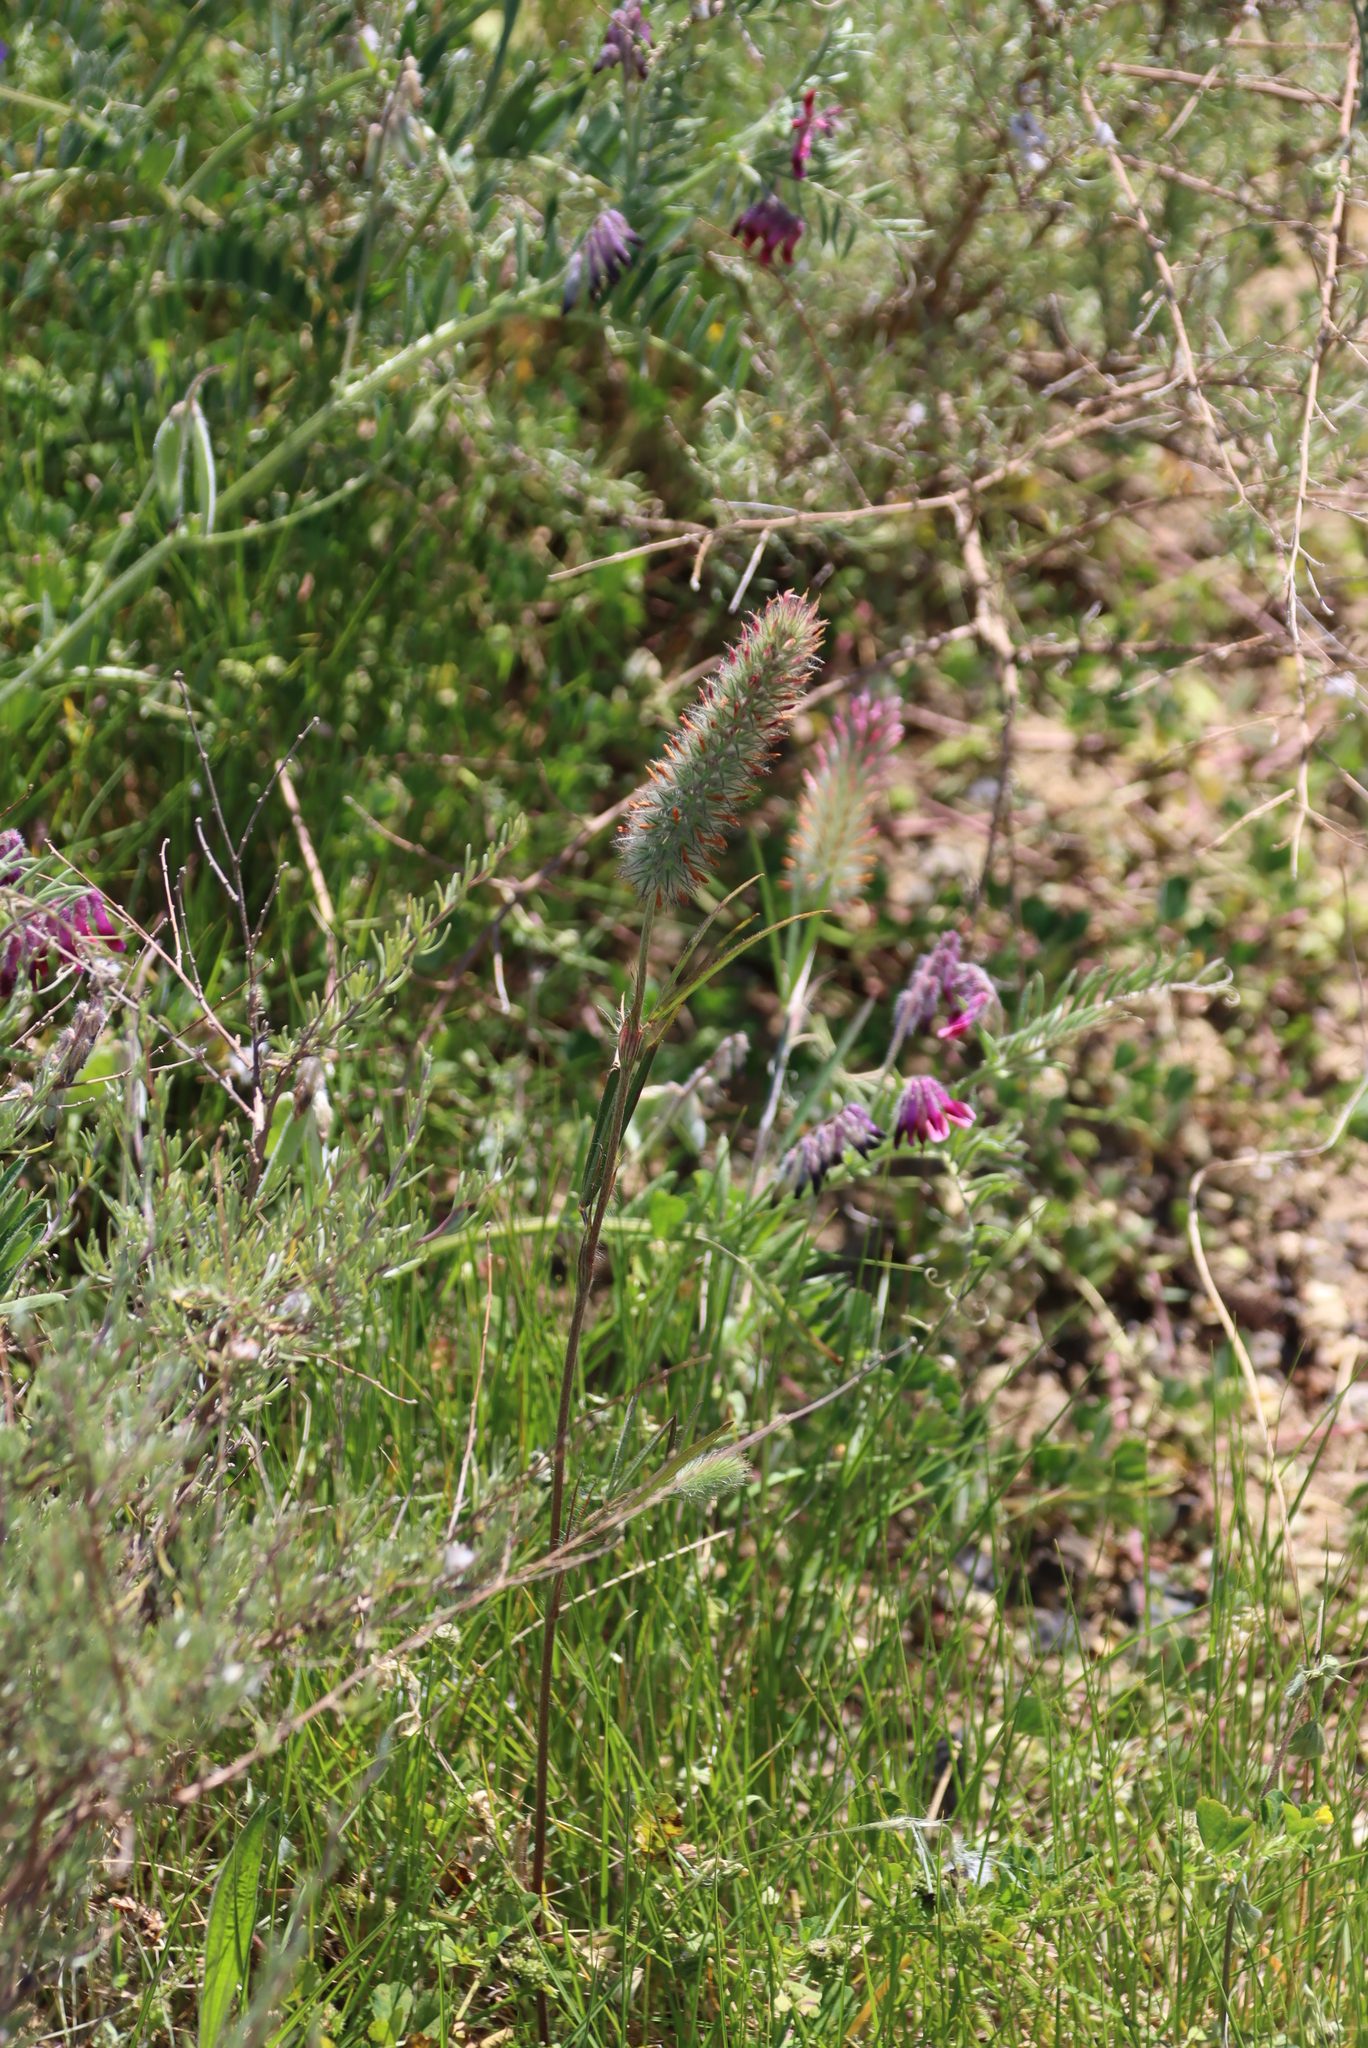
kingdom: Plantae
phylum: Tracheophyta
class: Magnoliopsida
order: Fabales
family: Fabaceae
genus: Trifolium
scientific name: Trifolium angustifolium
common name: Narrow clover
